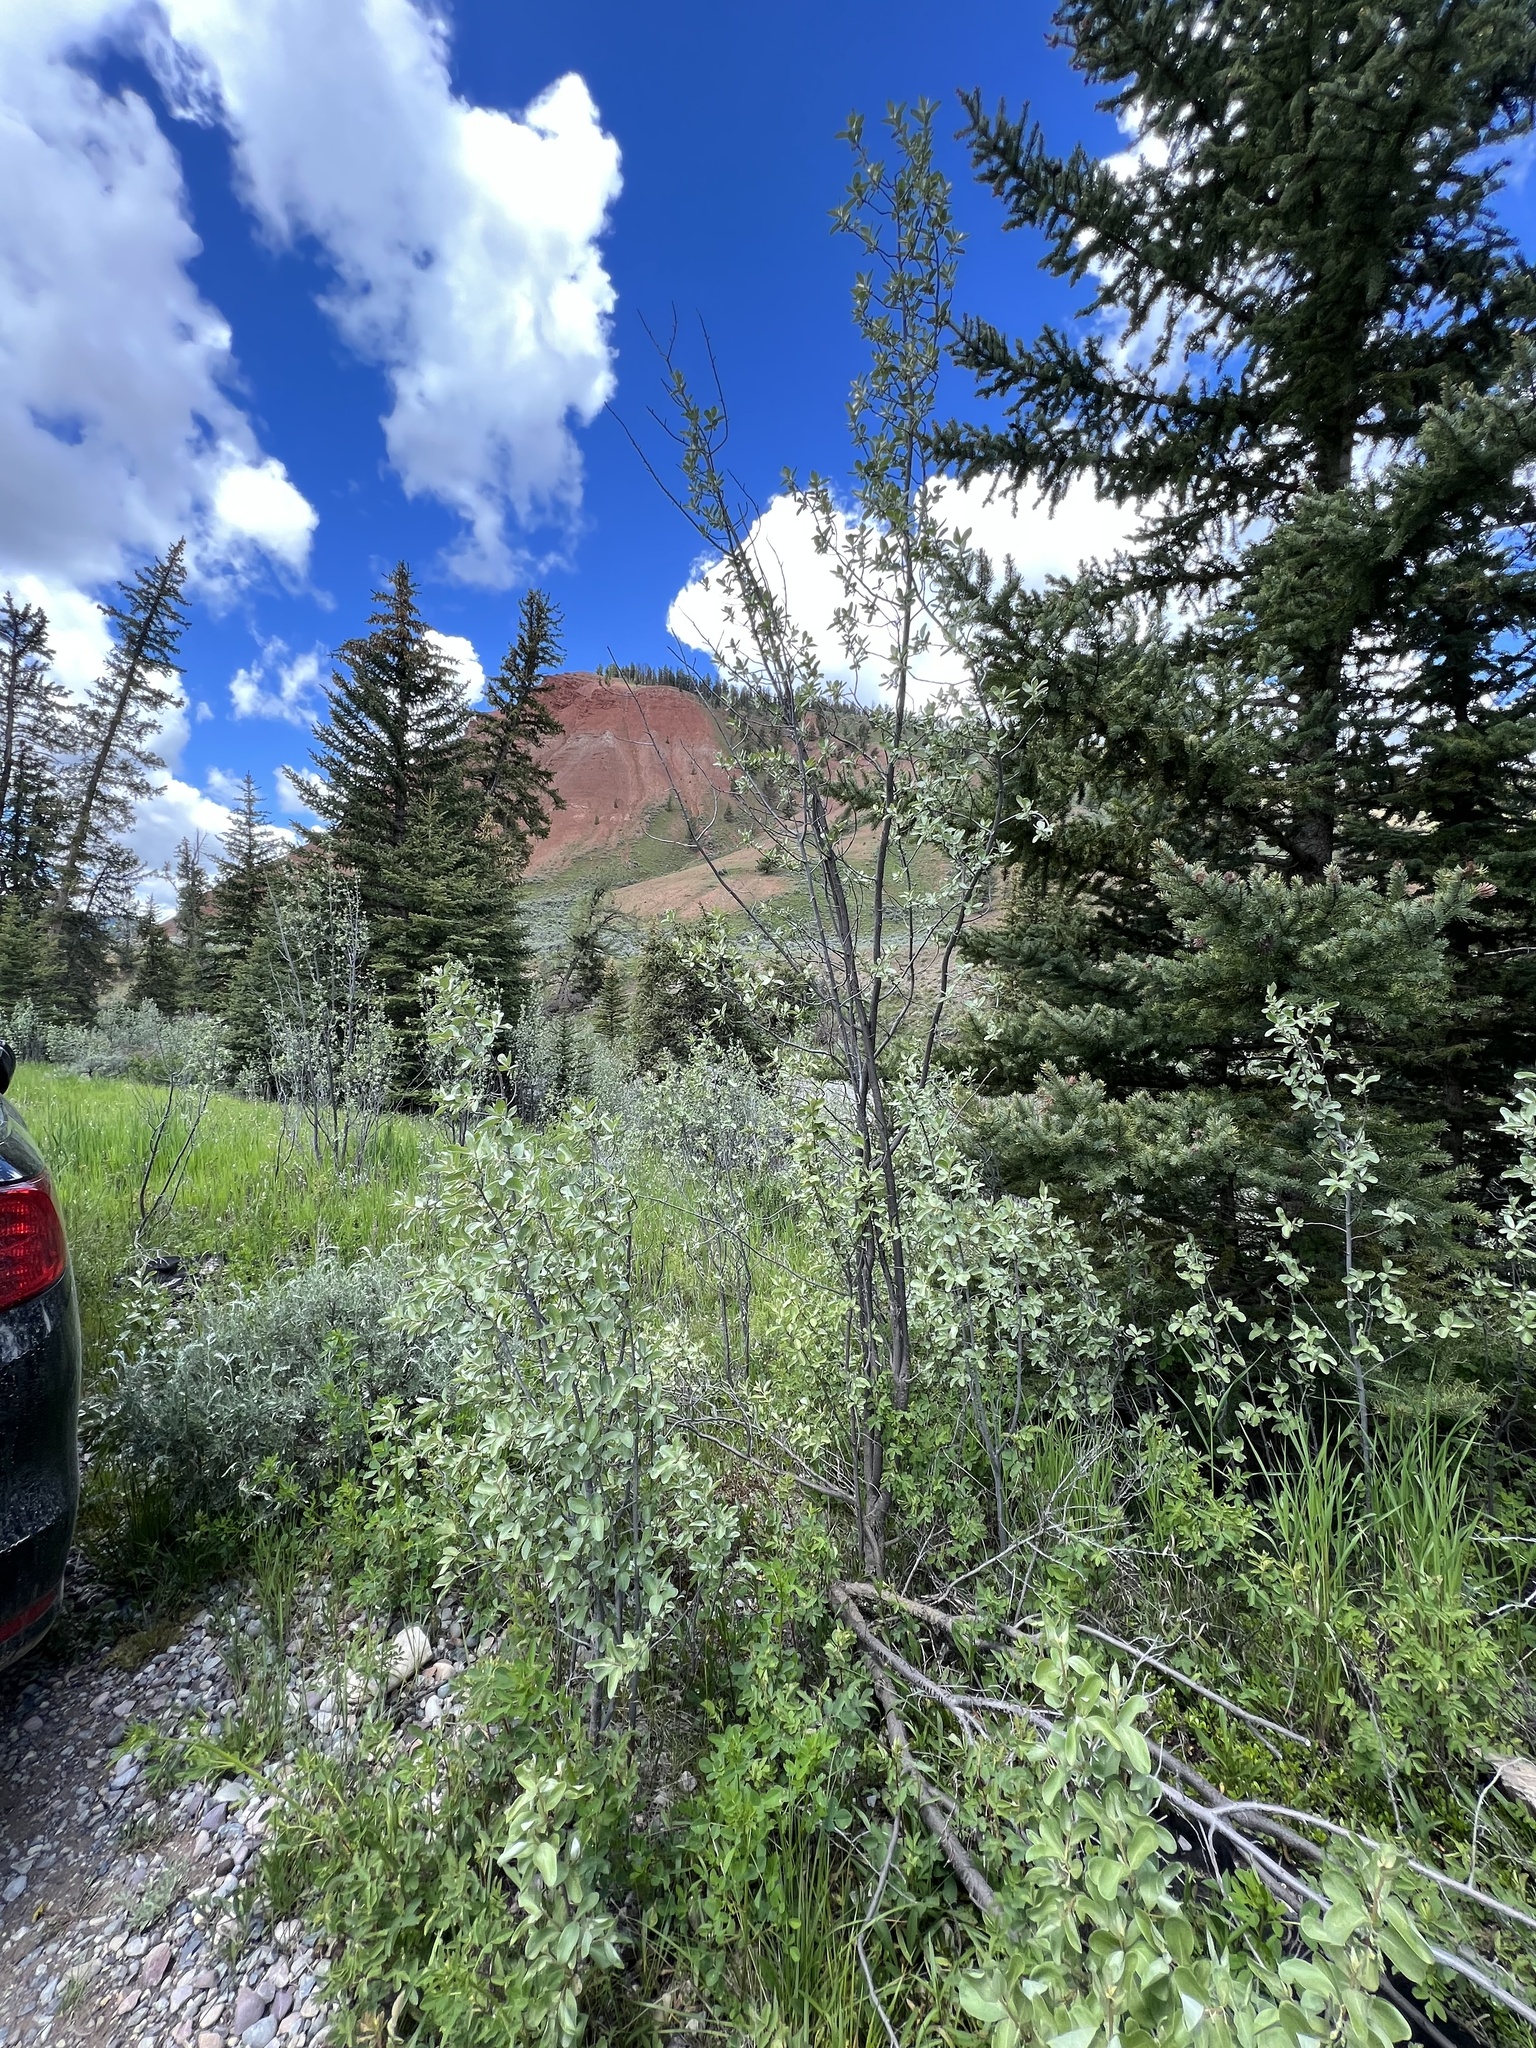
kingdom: Plantae
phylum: Tracheophyta
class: Magnoliopsida
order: Rosales
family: Elaeagnaceae
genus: Elaeagnus
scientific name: Elaeagnus commutata
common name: Silverberry
